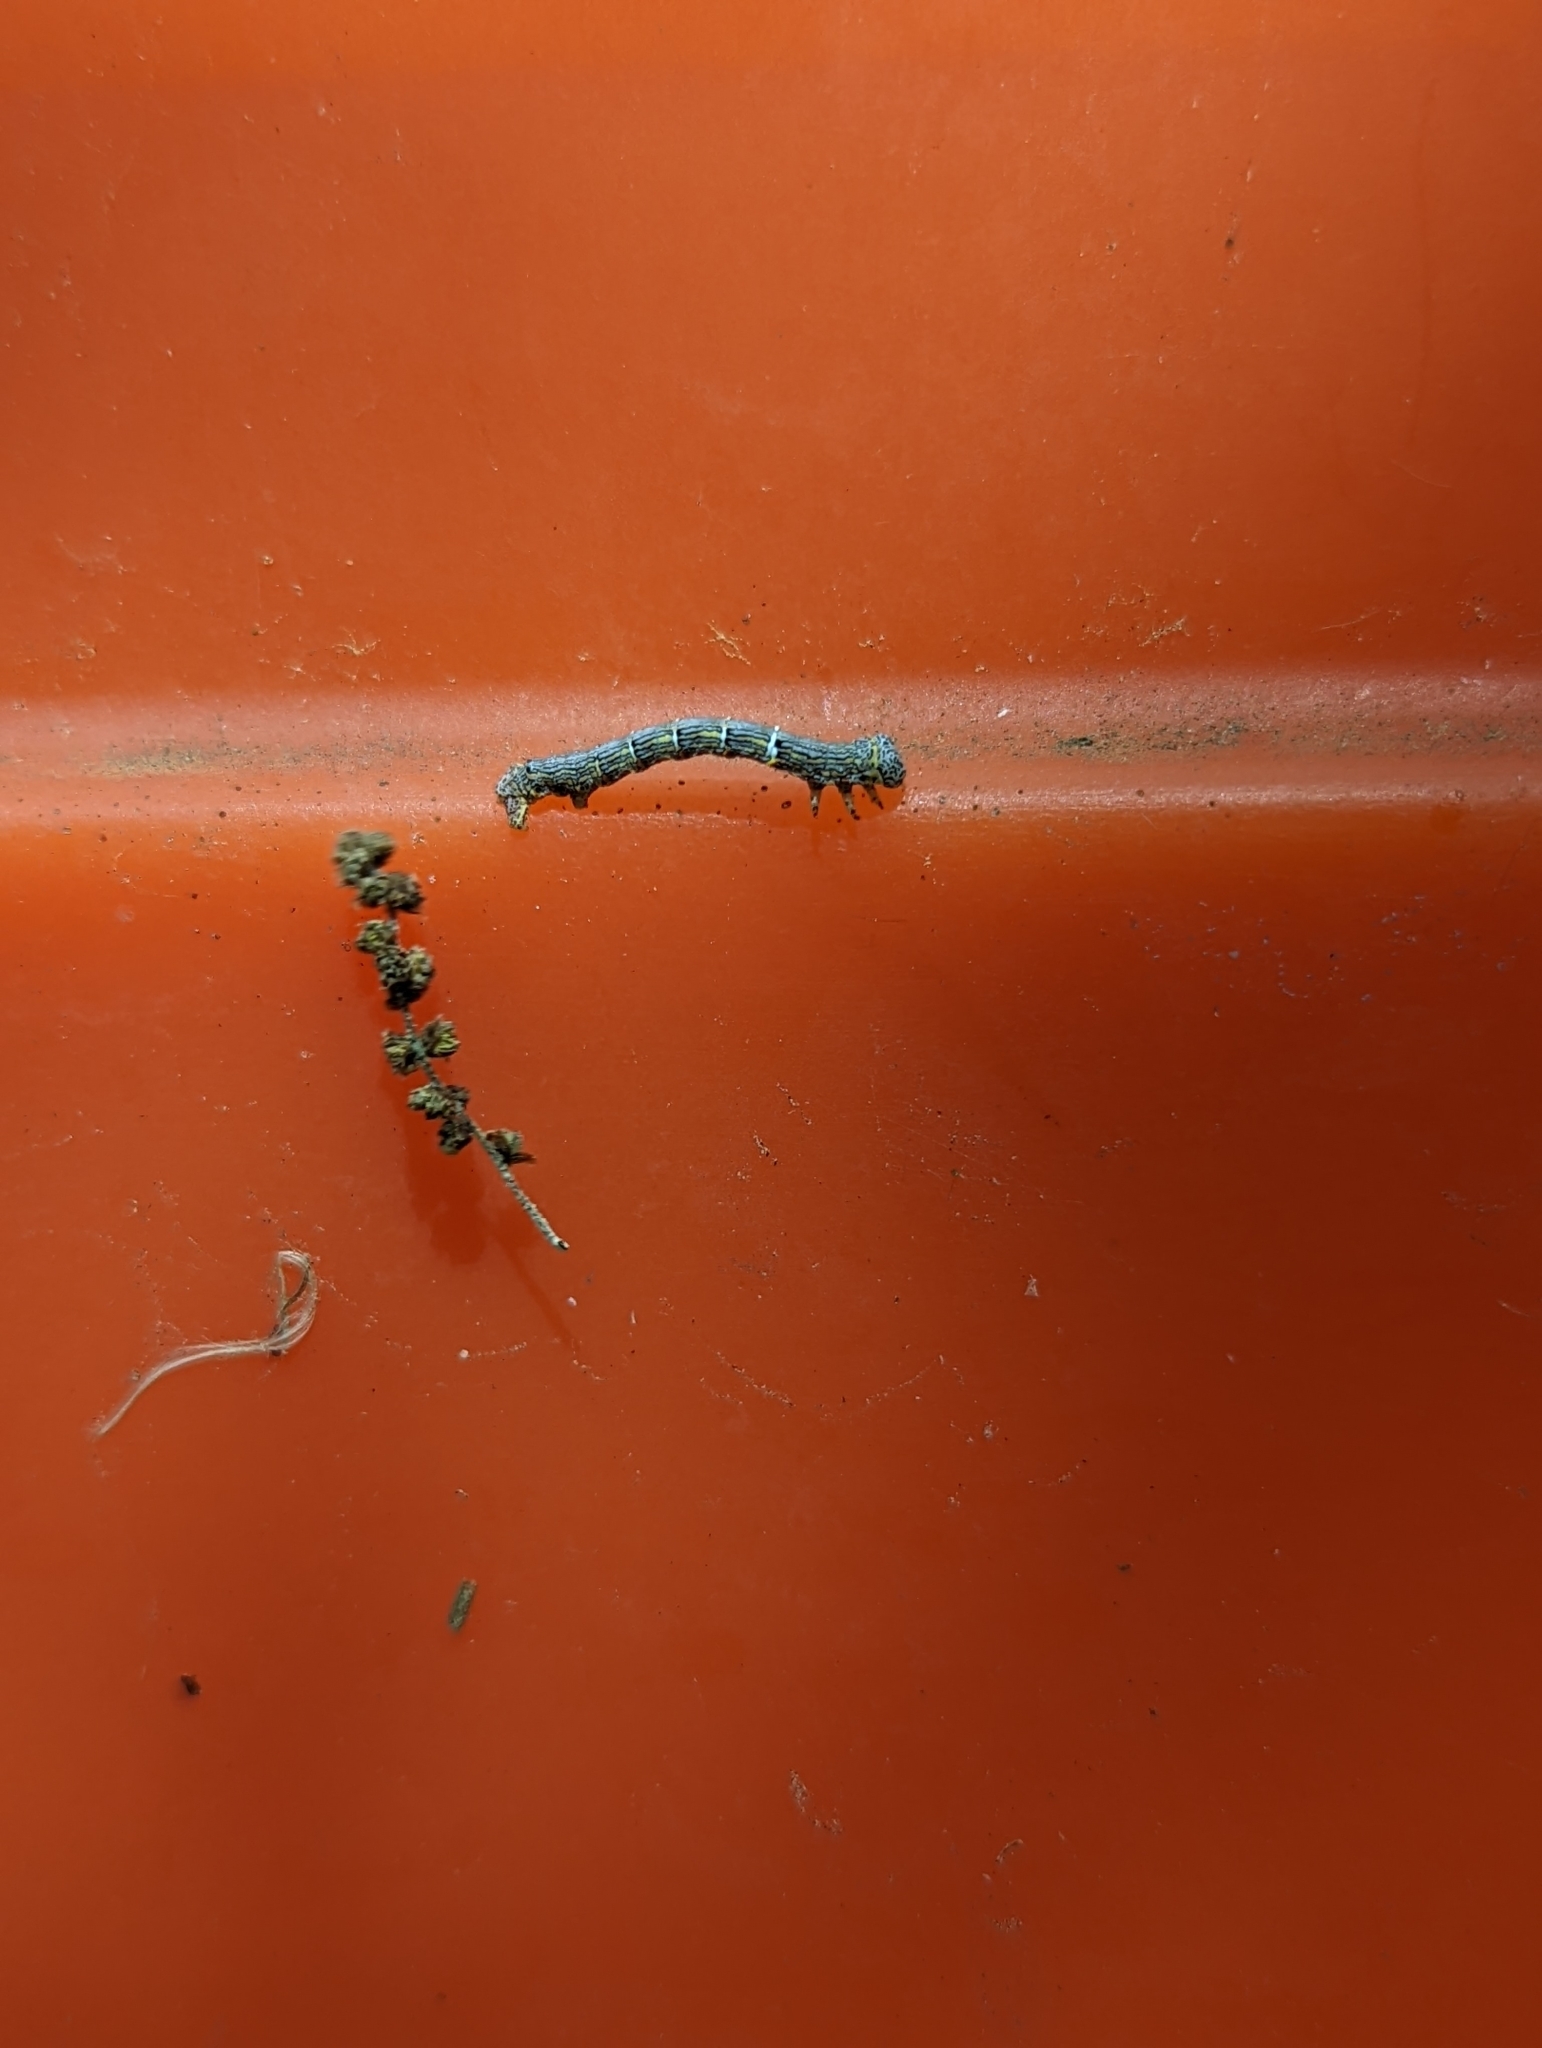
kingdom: Animalia
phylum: Arthropoda
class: Insecta
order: Lepidoptera
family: Geometridae
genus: Lycia
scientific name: Lycia ypsilon
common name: Wooly gray
